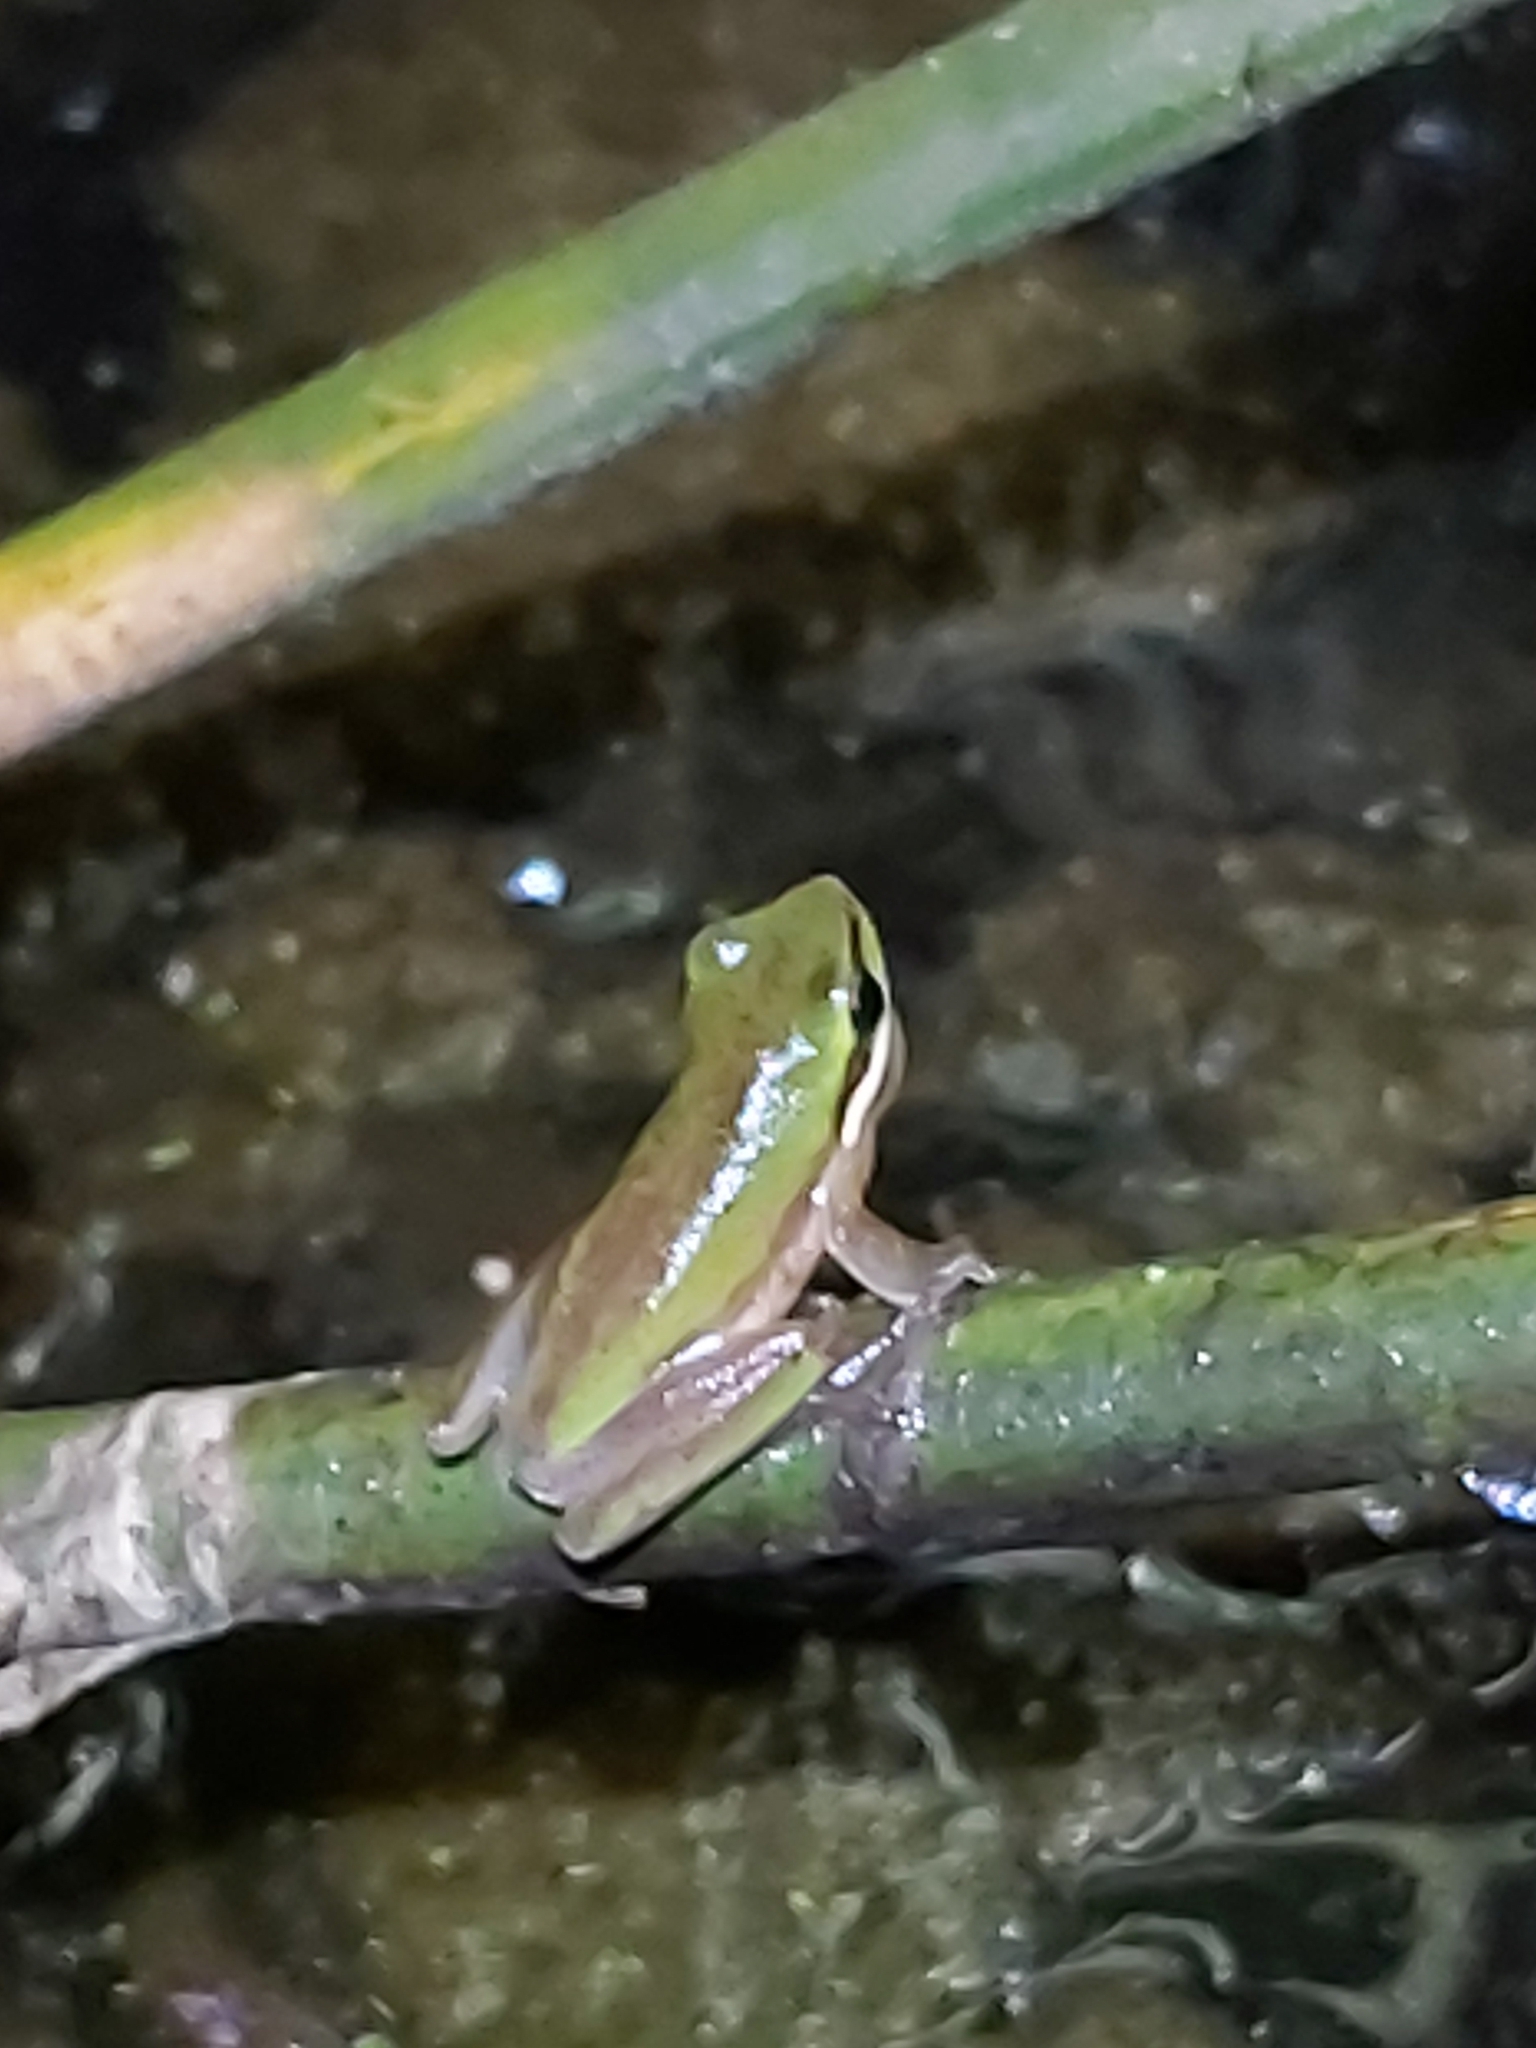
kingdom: Animalia
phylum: Chordata
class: Amphibia
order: Anura
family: Pelodryadidae
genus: Litoria
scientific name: Litoria fallax
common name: Eastern dwarf treefrog
